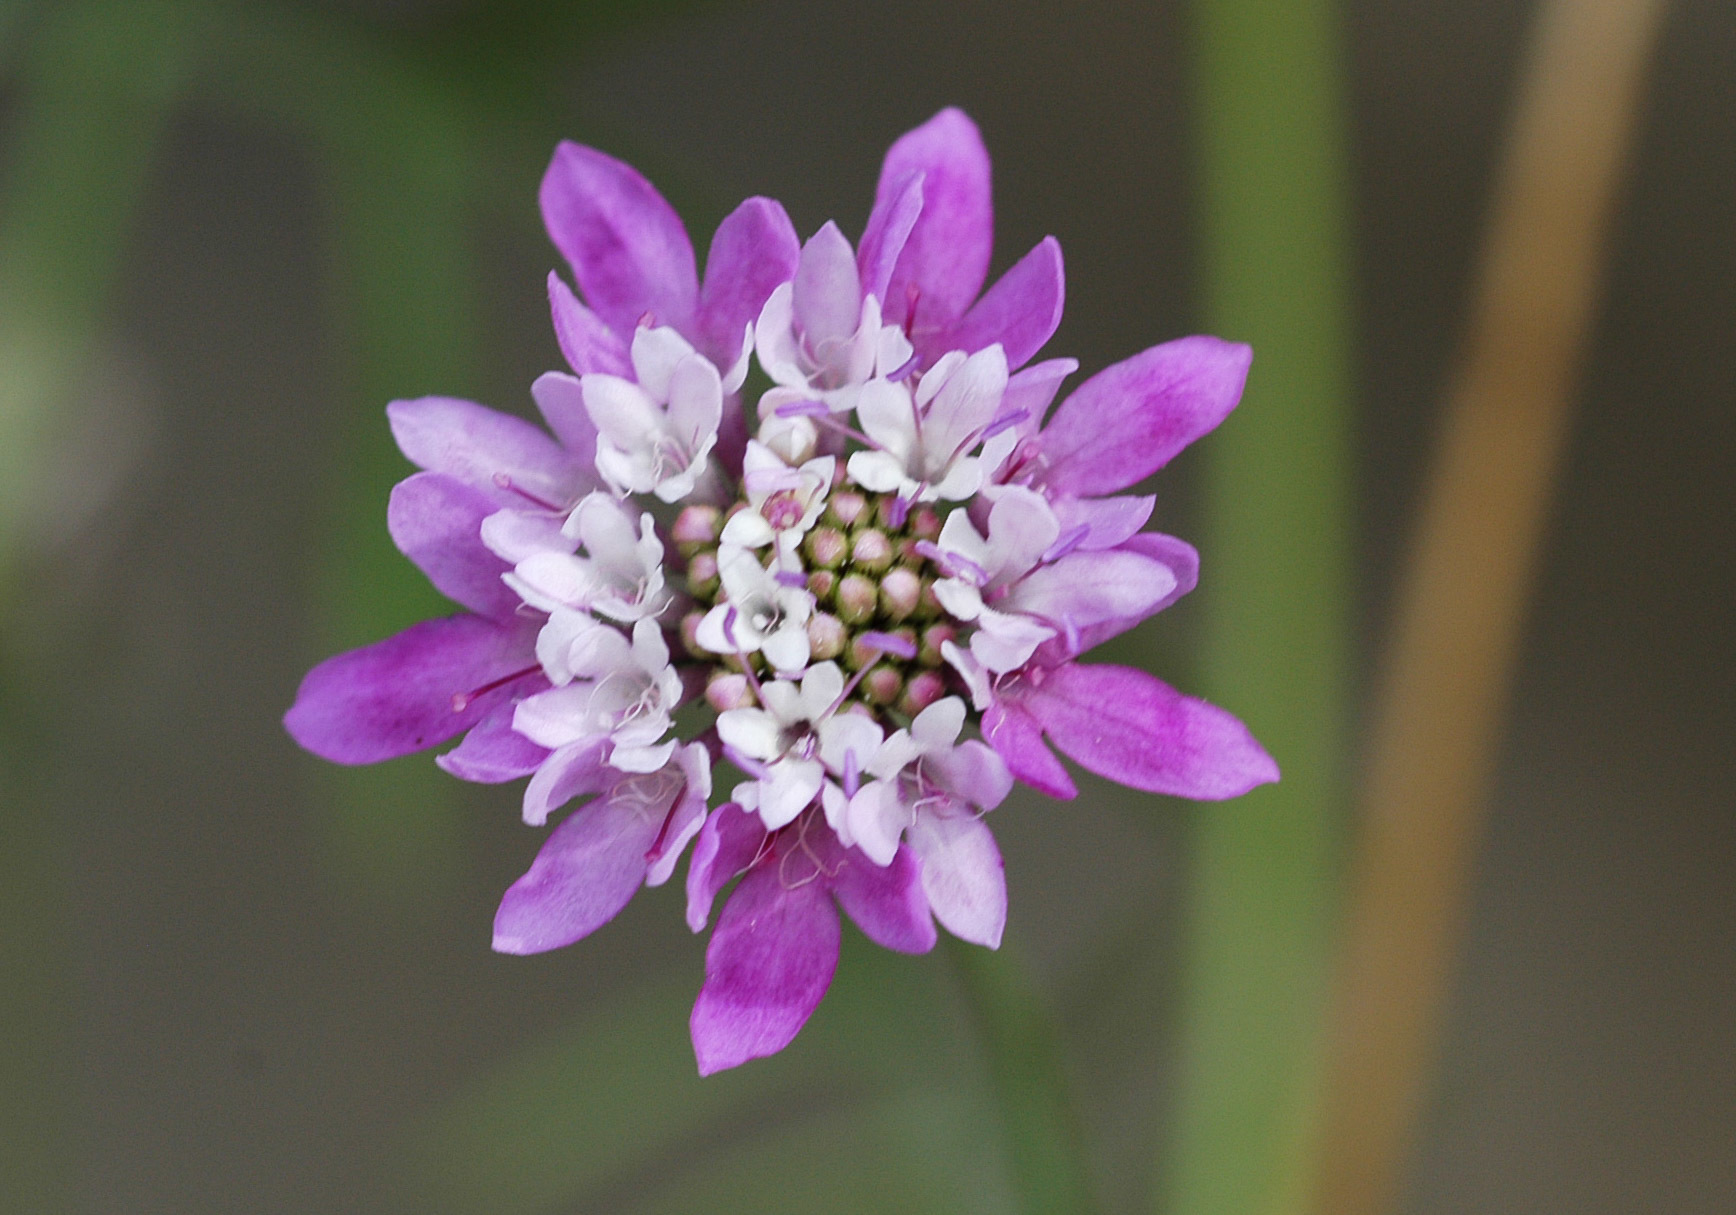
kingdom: Plantae
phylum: Tracheophyta
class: Magnoliopsida
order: Dipsacales
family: Caprifoliaceae
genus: Sixalix
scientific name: Sixalix atropurpurea
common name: Sweet scabious
